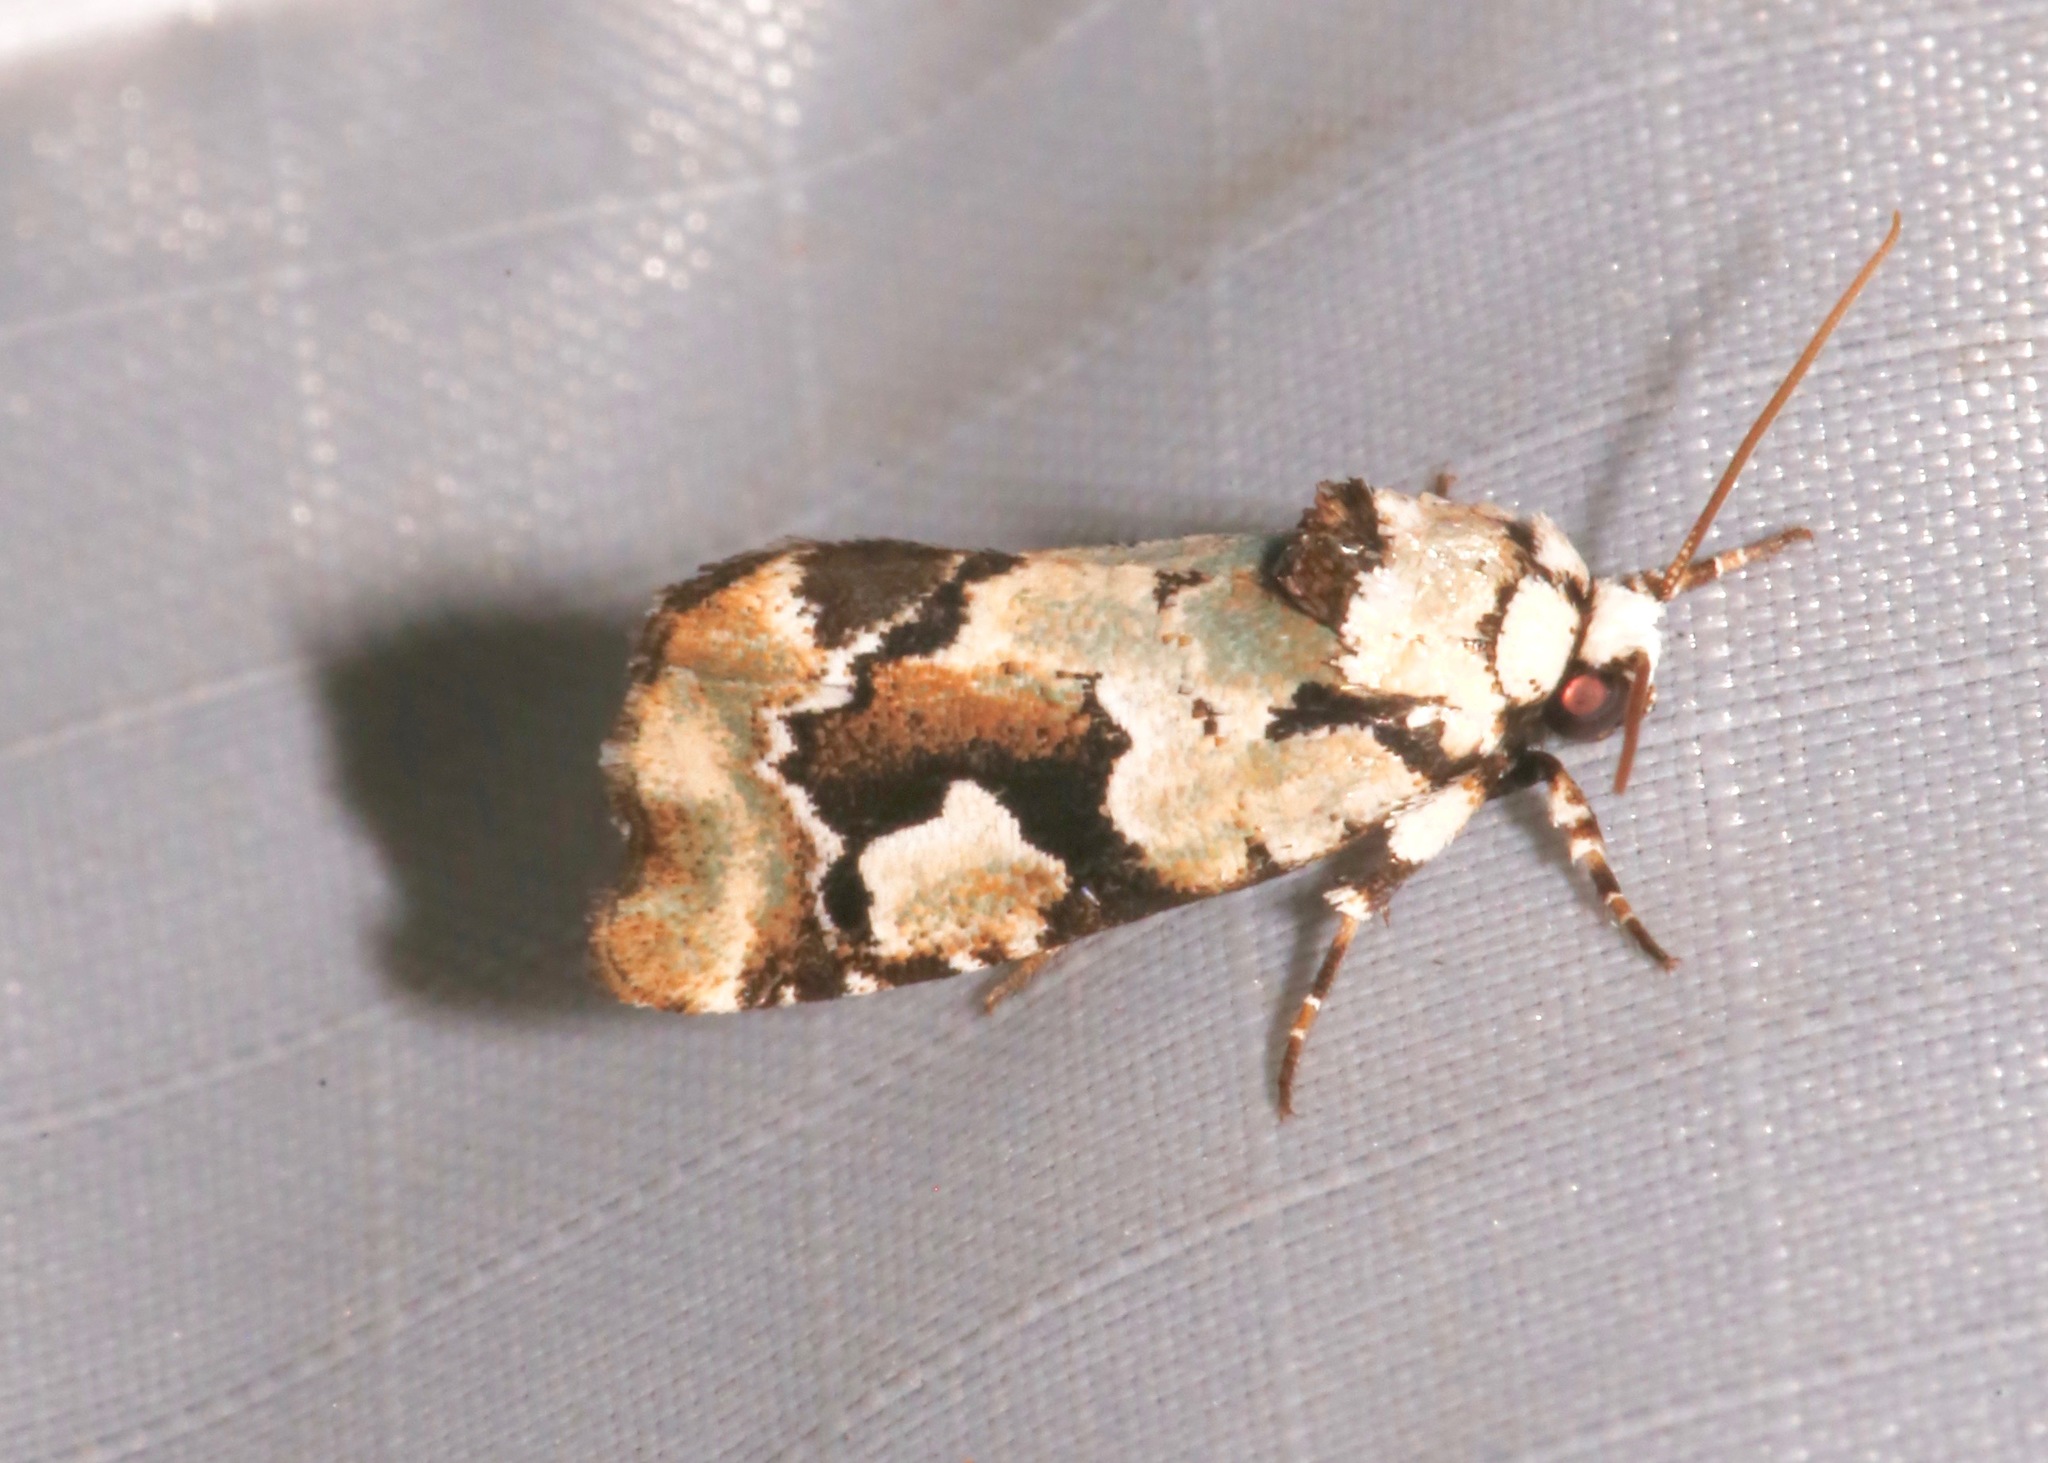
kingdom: Animalia
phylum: Arthropoda
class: Insecta
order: Lepidoptera
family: Noctuidae
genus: Emarginea
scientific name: Emarginea percara
